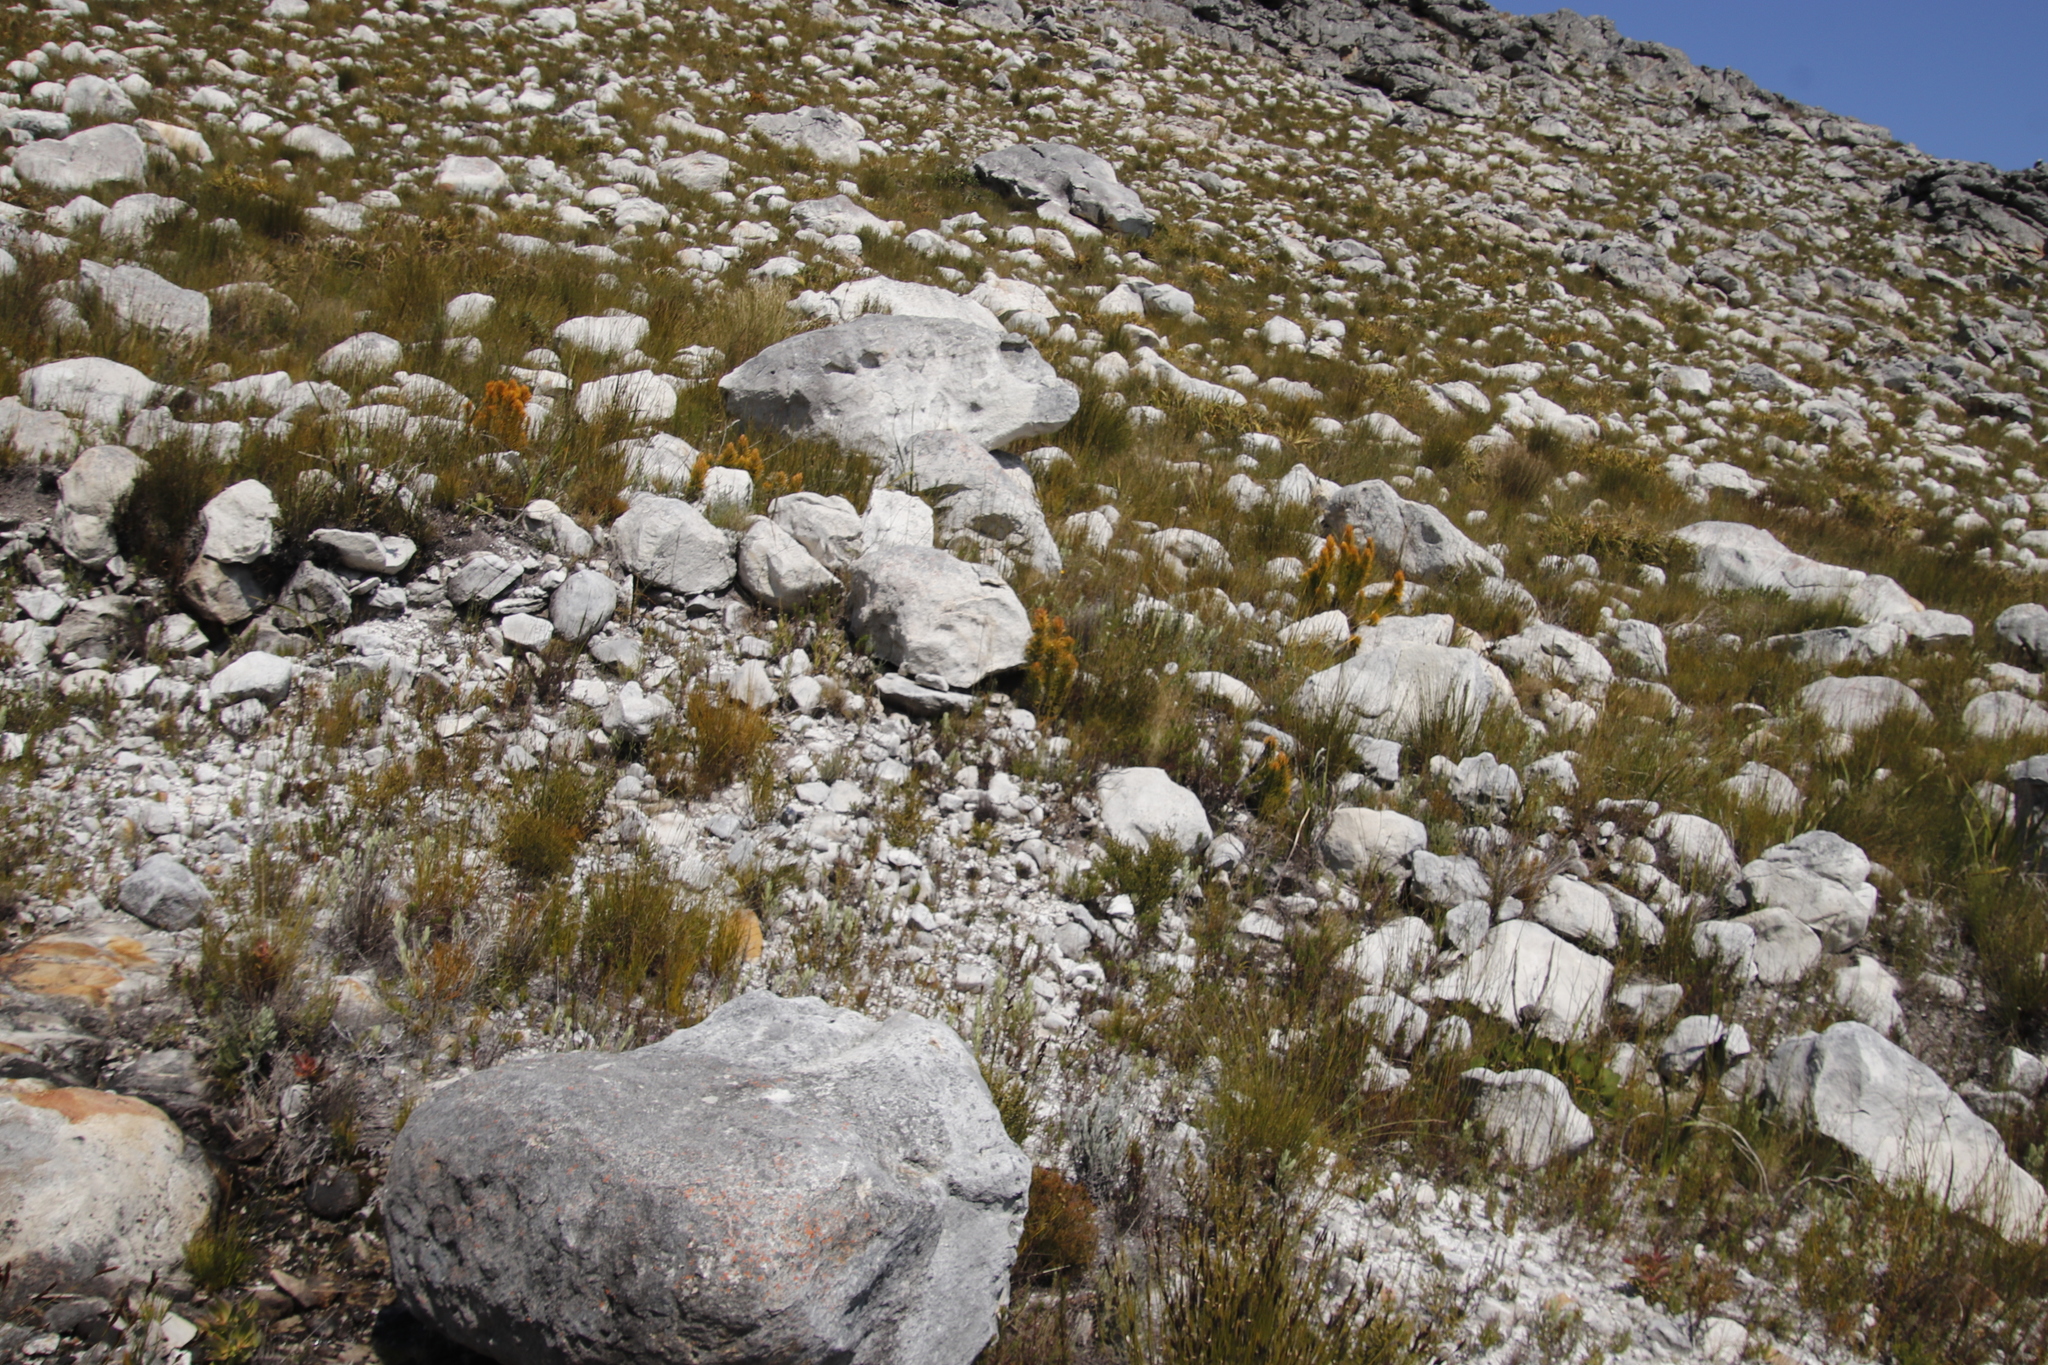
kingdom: Plantae
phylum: Tracheophyta
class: Magnoliopsida
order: Lamiales
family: Stilbaceae
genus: Retzia
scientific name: Retzia capensis
